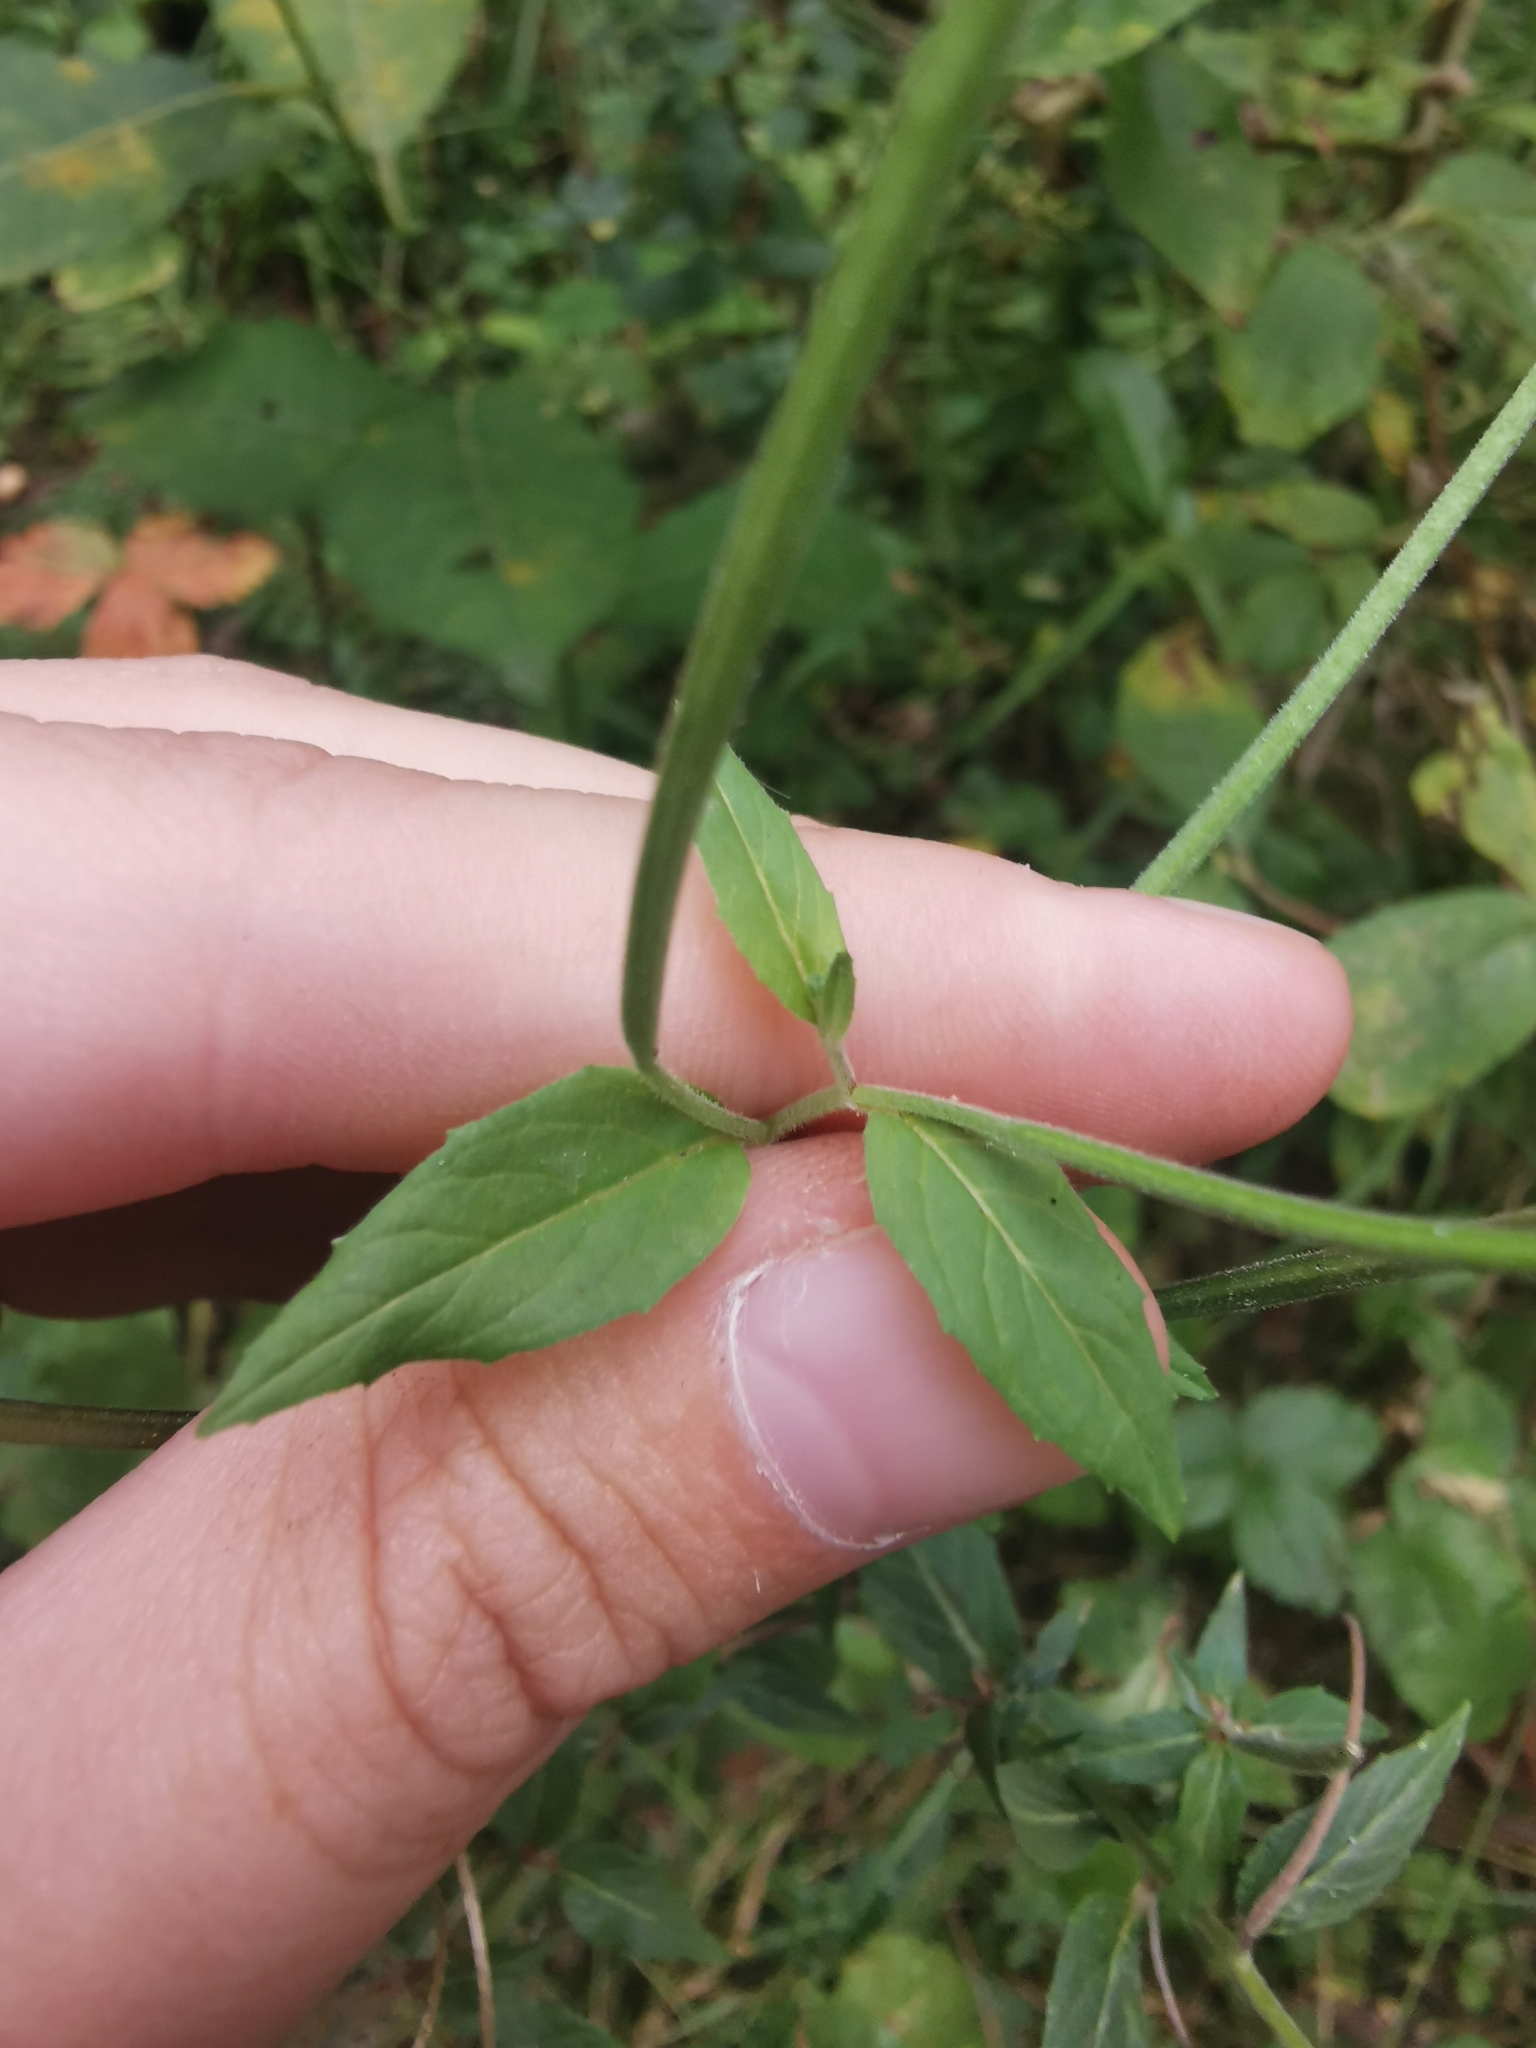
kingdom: Plantae
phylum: Tracheophyta
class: Magnoliopsida
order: Myrtales
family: Onagraceae
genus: Epilobium
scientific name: Epilobium montanum
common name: Broad-leaved willowherb
